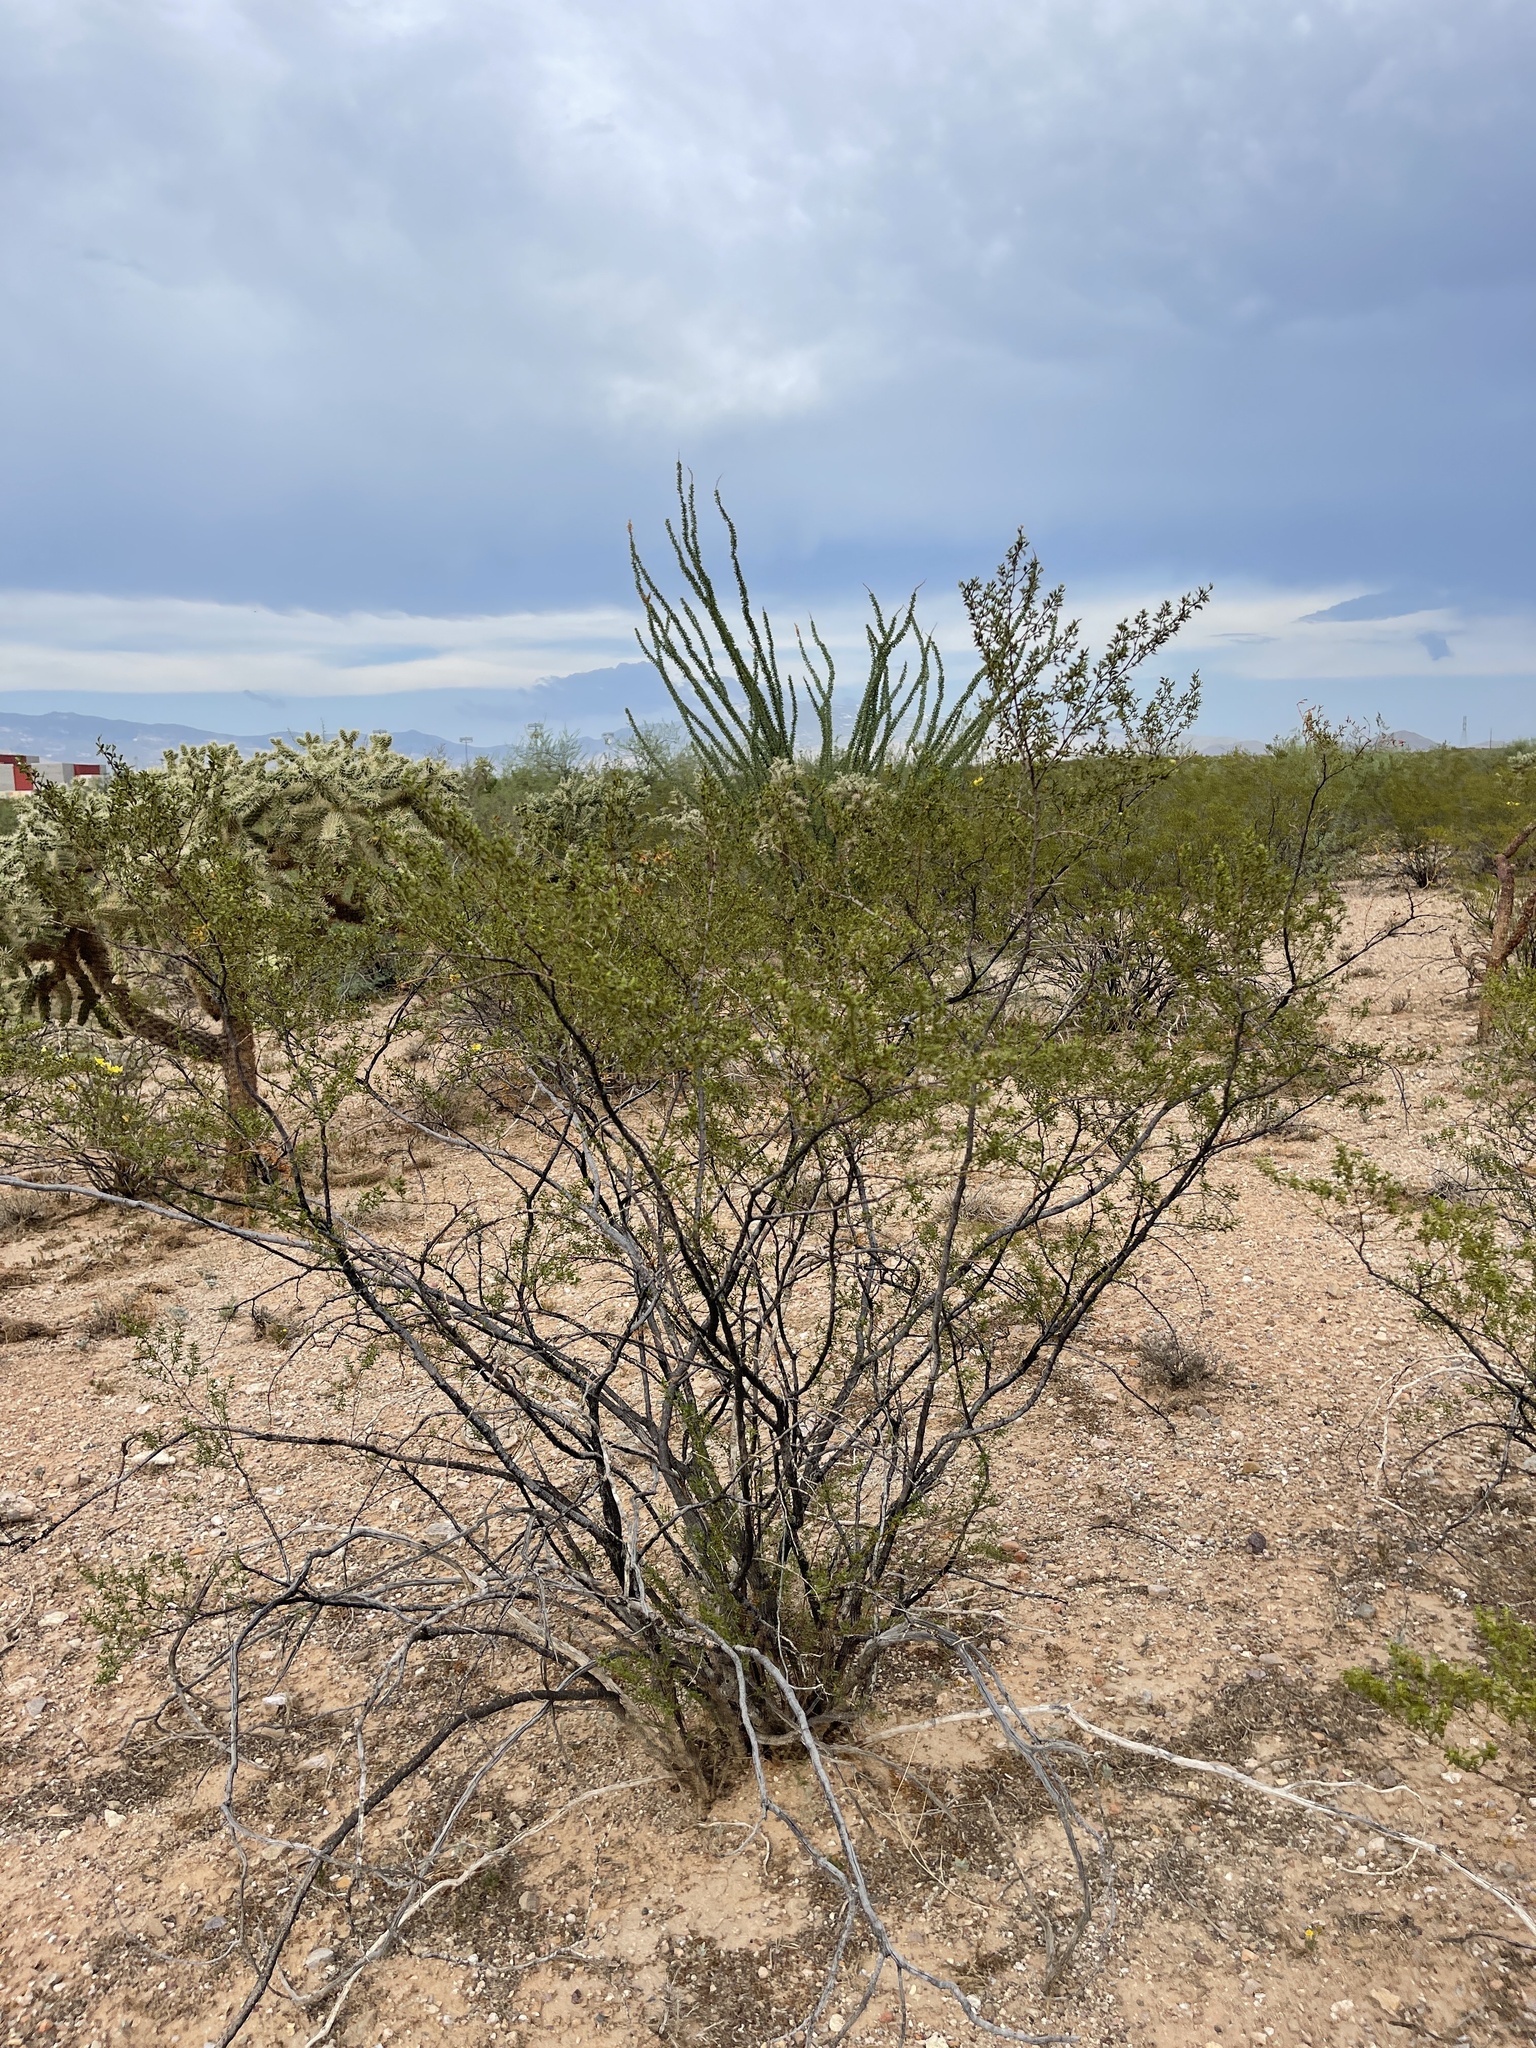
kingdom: Plantae
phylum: Tracheophyta
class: Magnoliopsida
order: Zygophyllales
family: Zygophyllaceae
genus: Larrea
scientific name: Larrea tridentata
